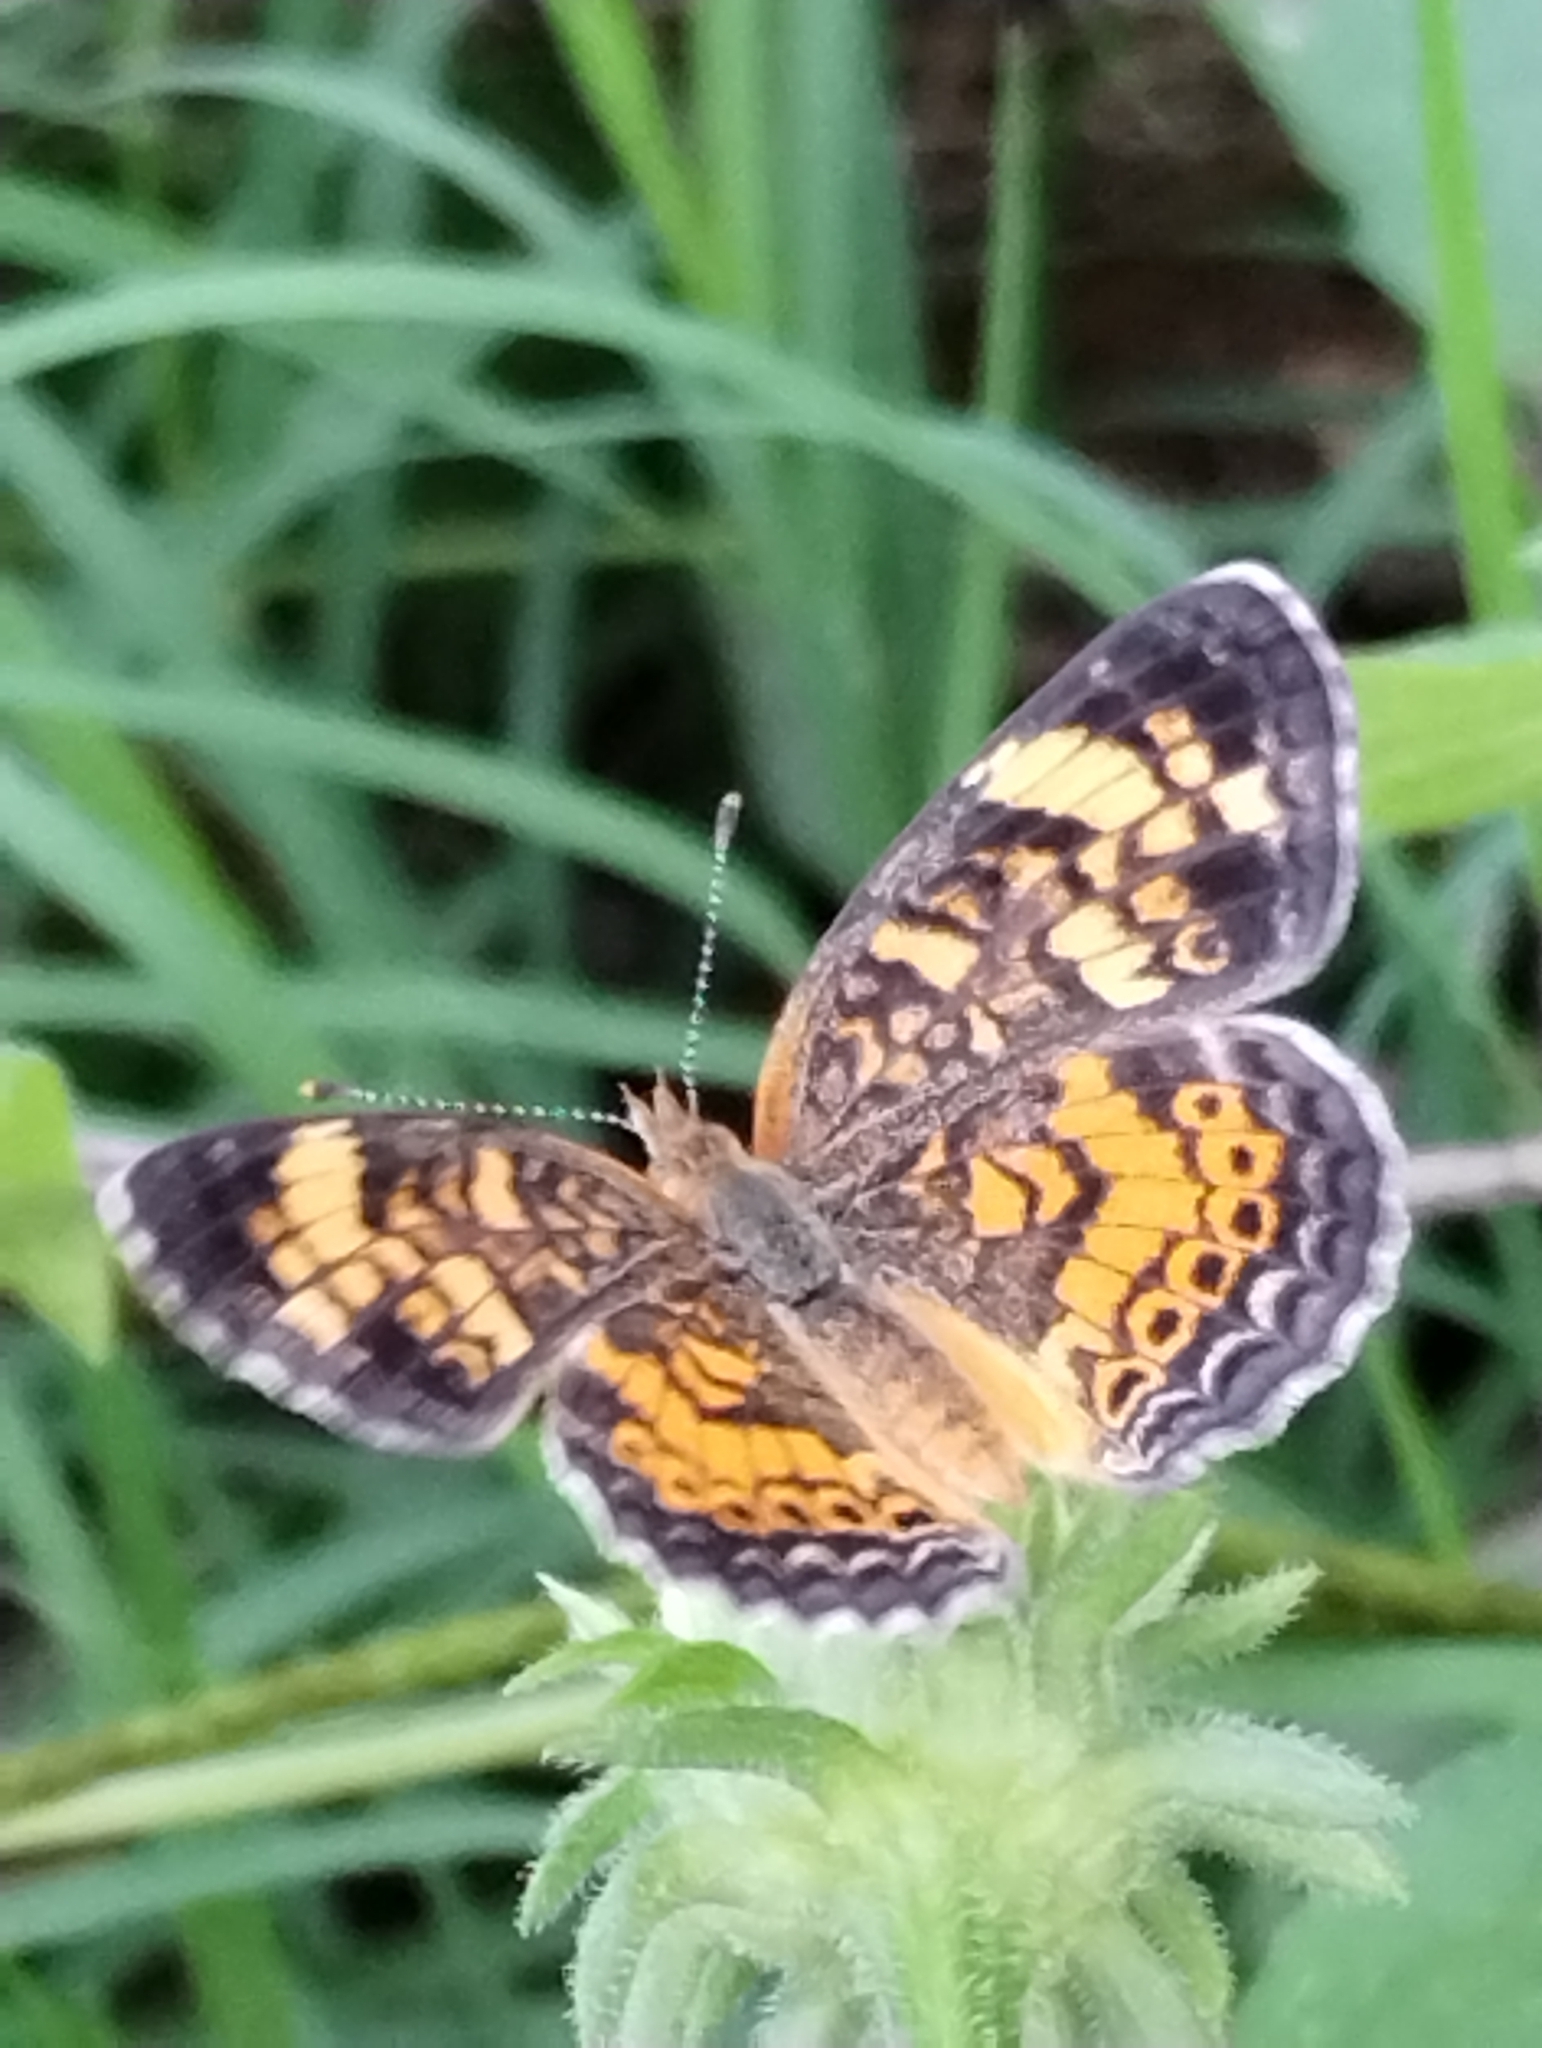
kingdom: Animalia
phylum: Arthropoda
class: Insecta
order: Lepidoptera
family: Nymphalidae
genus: Phyciodes
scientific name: Phyciodes tharos
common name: Pearl crescent
